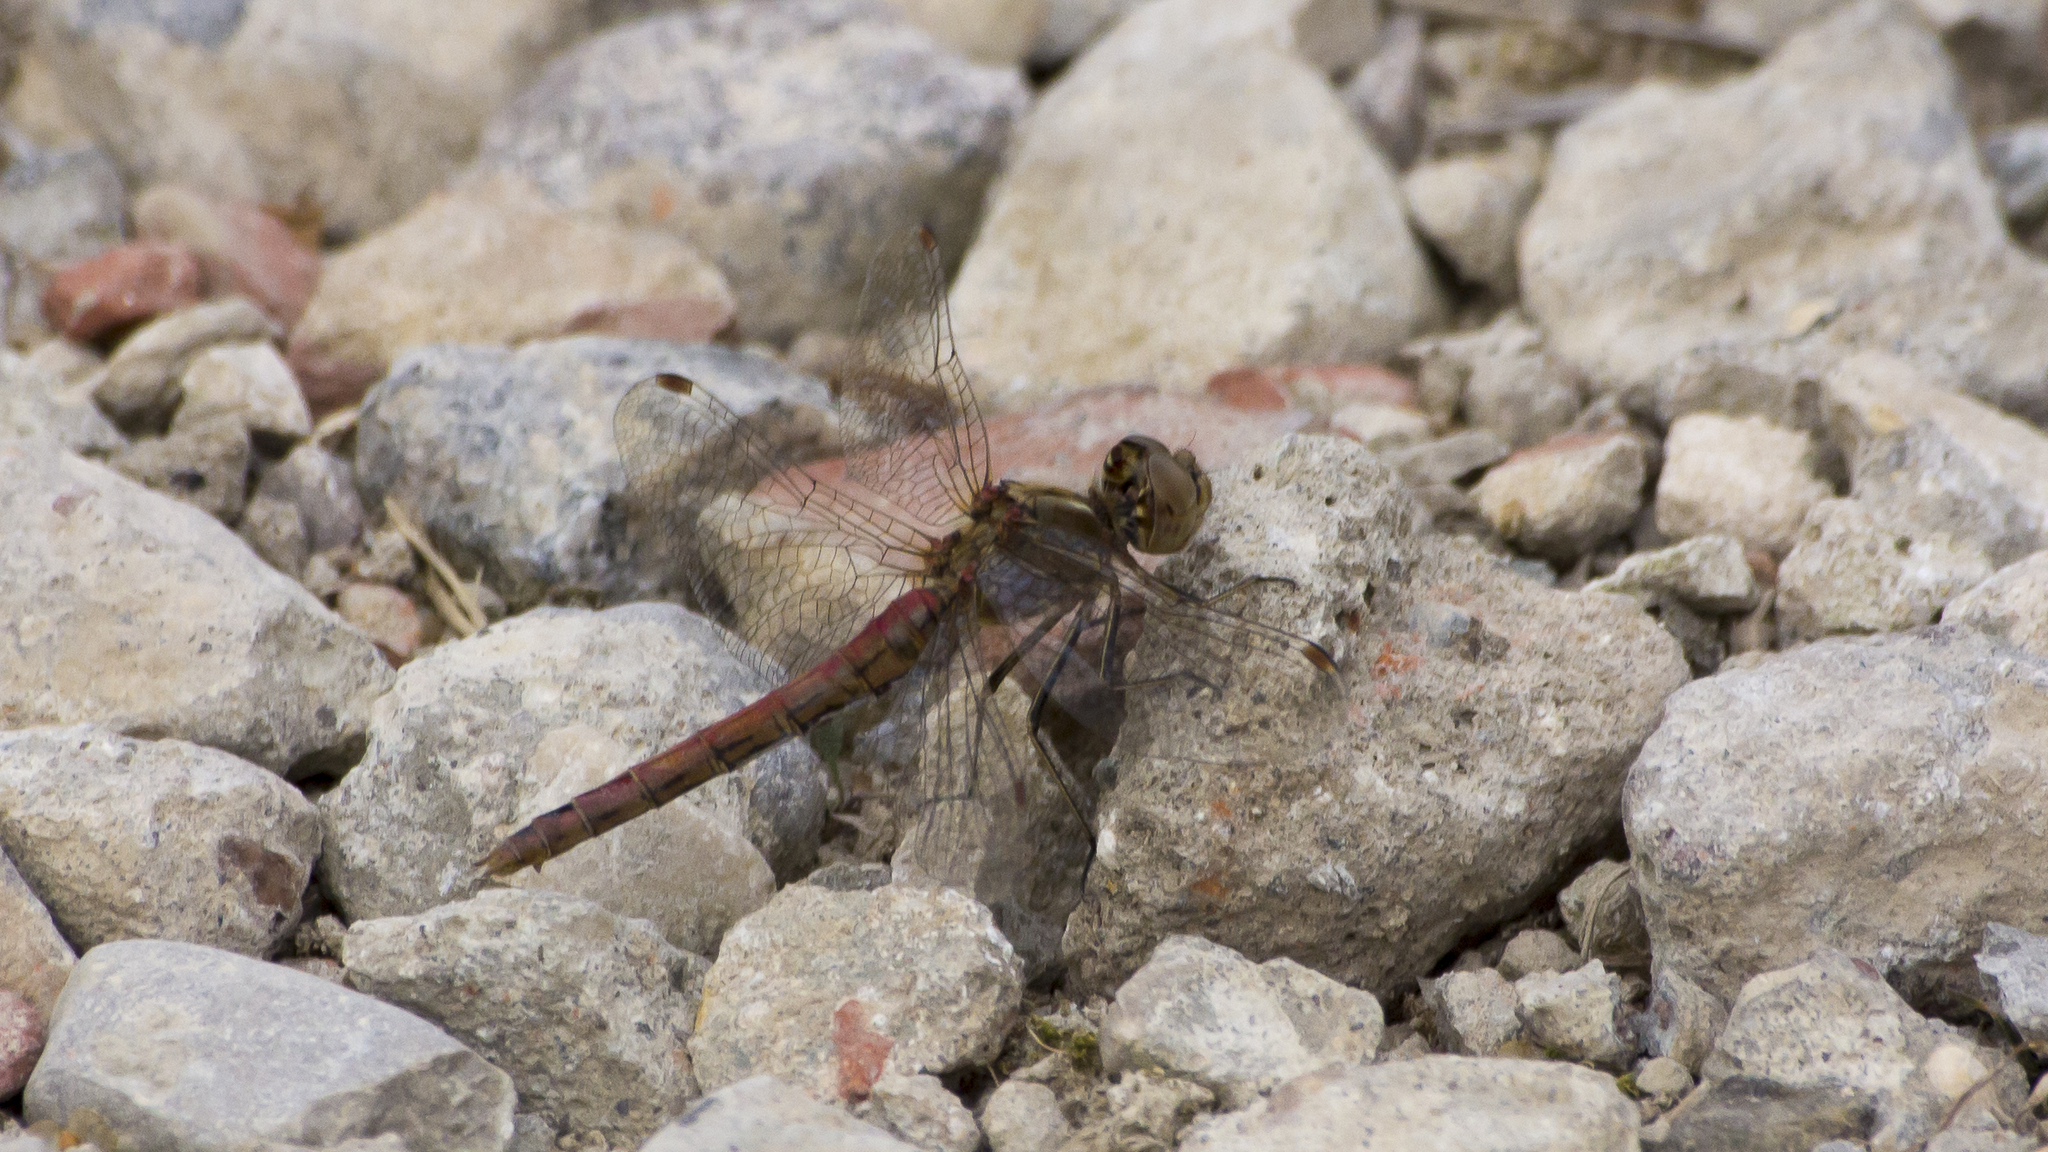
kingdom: Animalia
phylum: Arthropoda
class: Insecta
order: Odonata
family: Libellulidae
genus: Sympetrum
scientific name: Sympetrum vulgatum
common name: Vagrant darter
